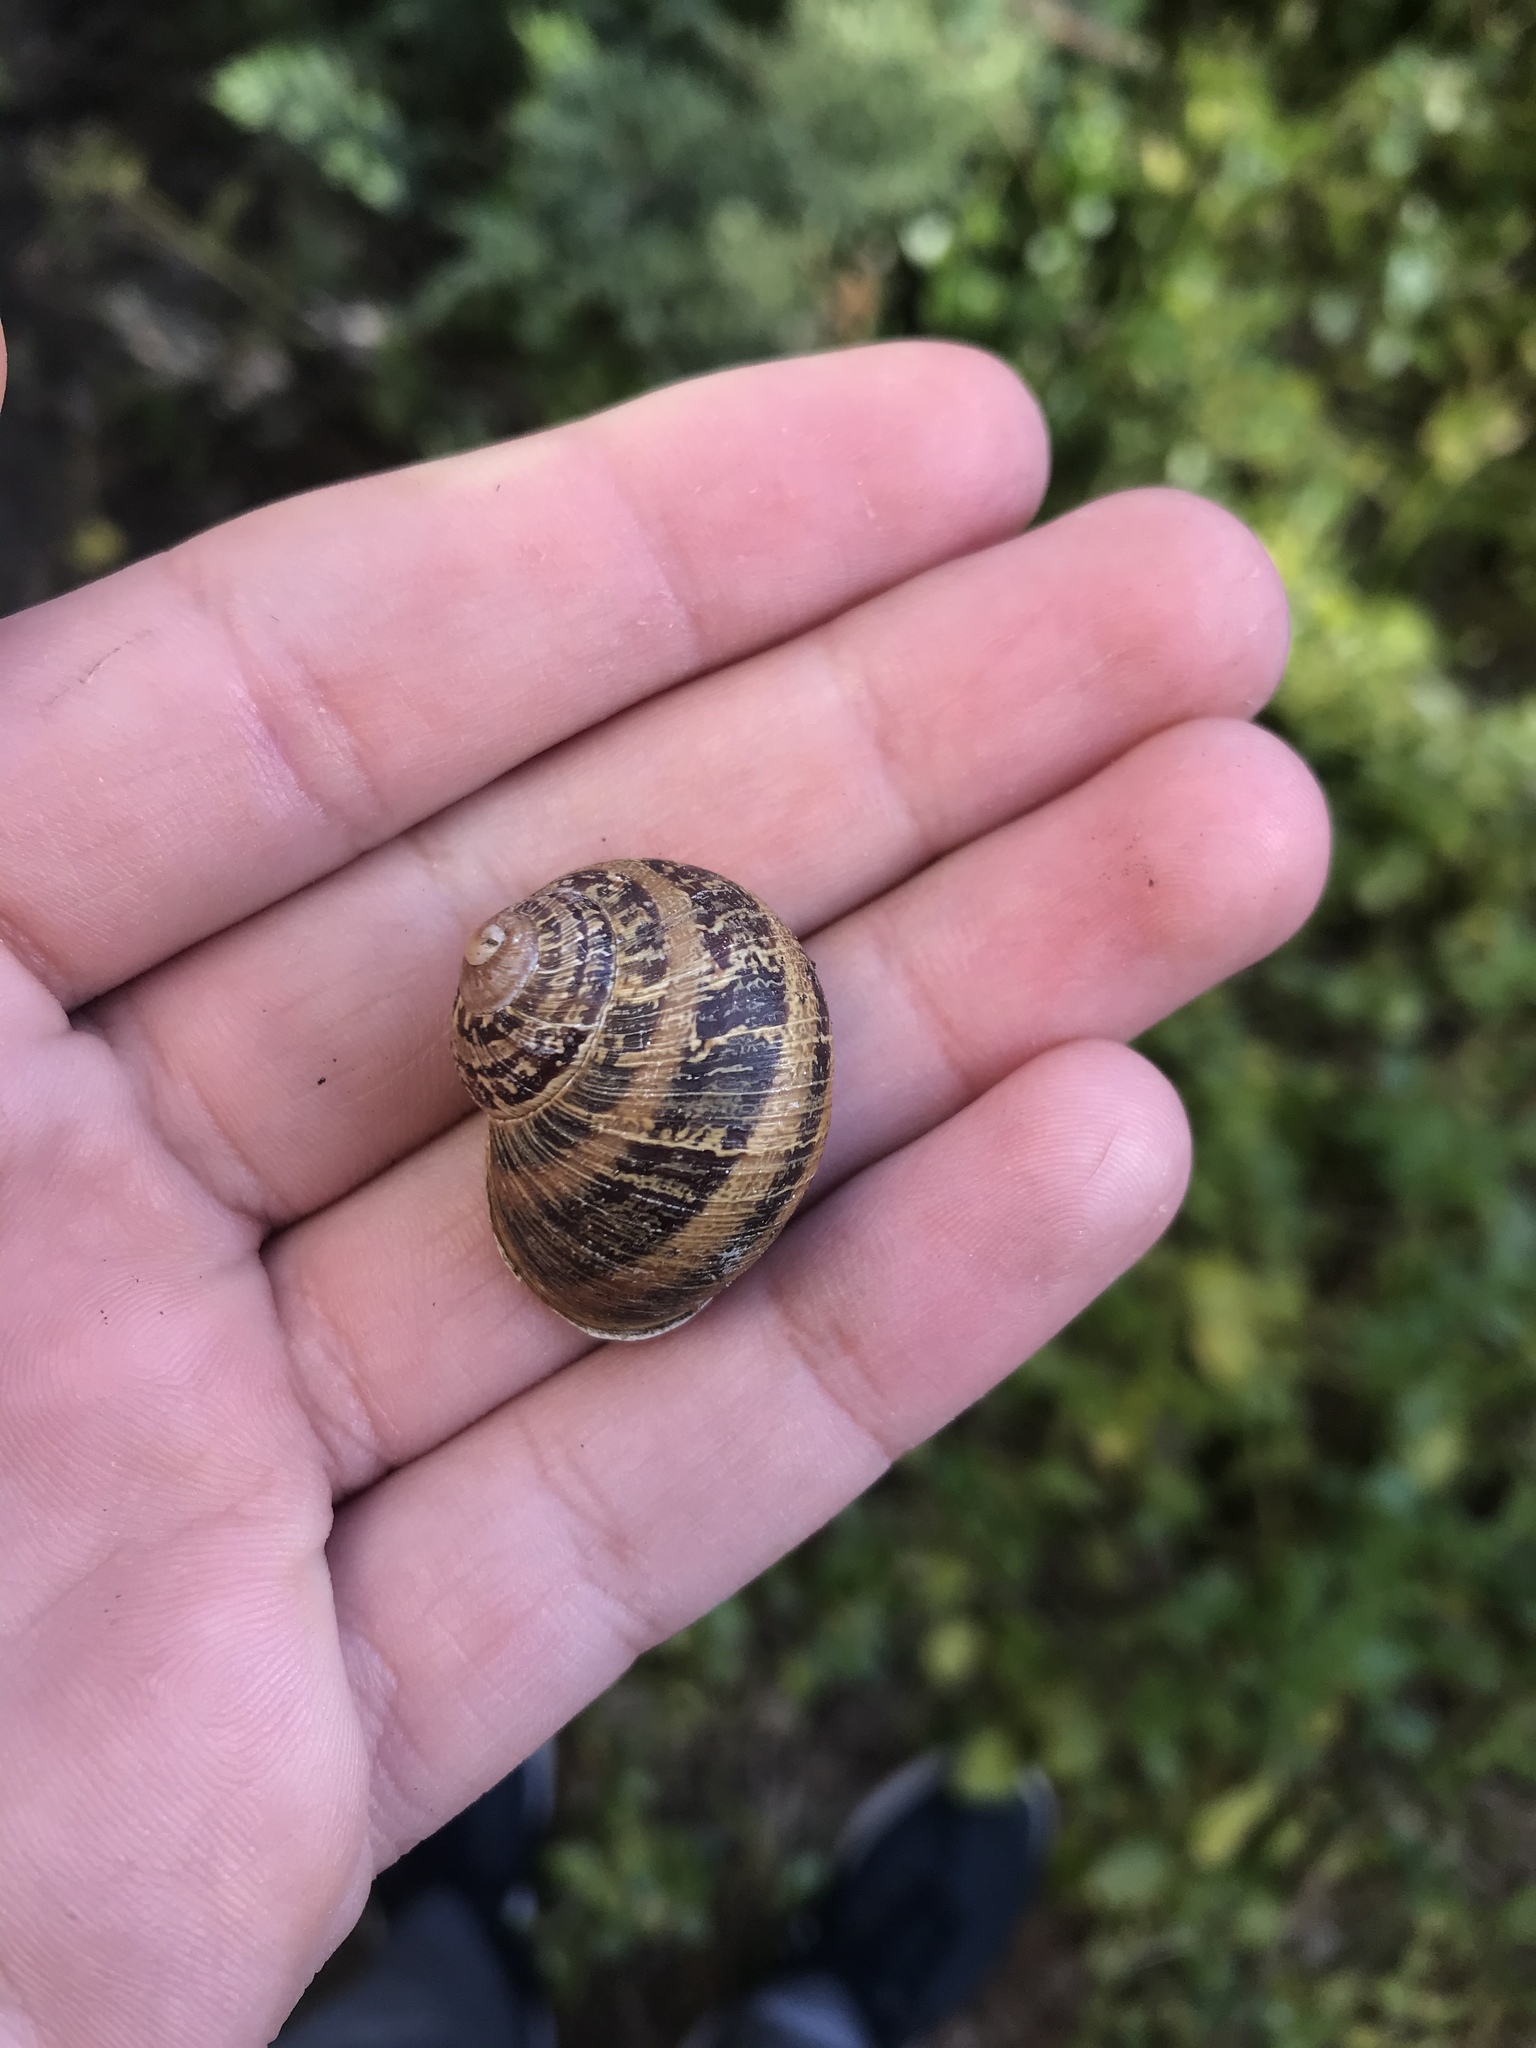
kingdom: Animalia
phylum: Mollusca
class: Gastropoda
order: Stylommatophora
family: Helicidae
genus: Cornu
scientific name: Cornu aspersum
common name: Brown garden snail
